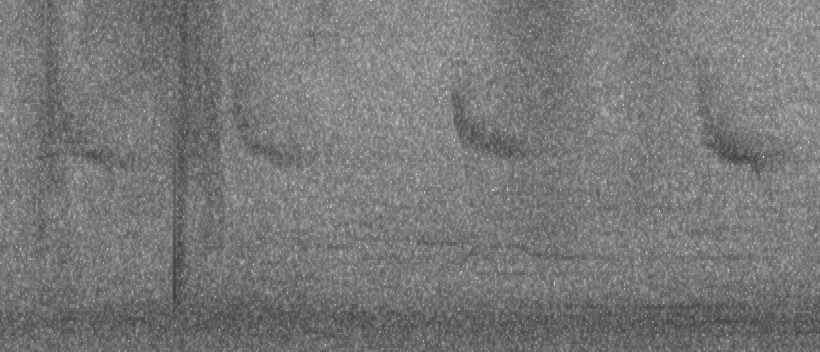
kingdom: Animalia
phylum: Chordata
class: Aves
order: Passeriformes
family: Zosteropidae
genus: Zosterops
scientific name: Zosterops simplex
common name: Swinhoe's white-eye
